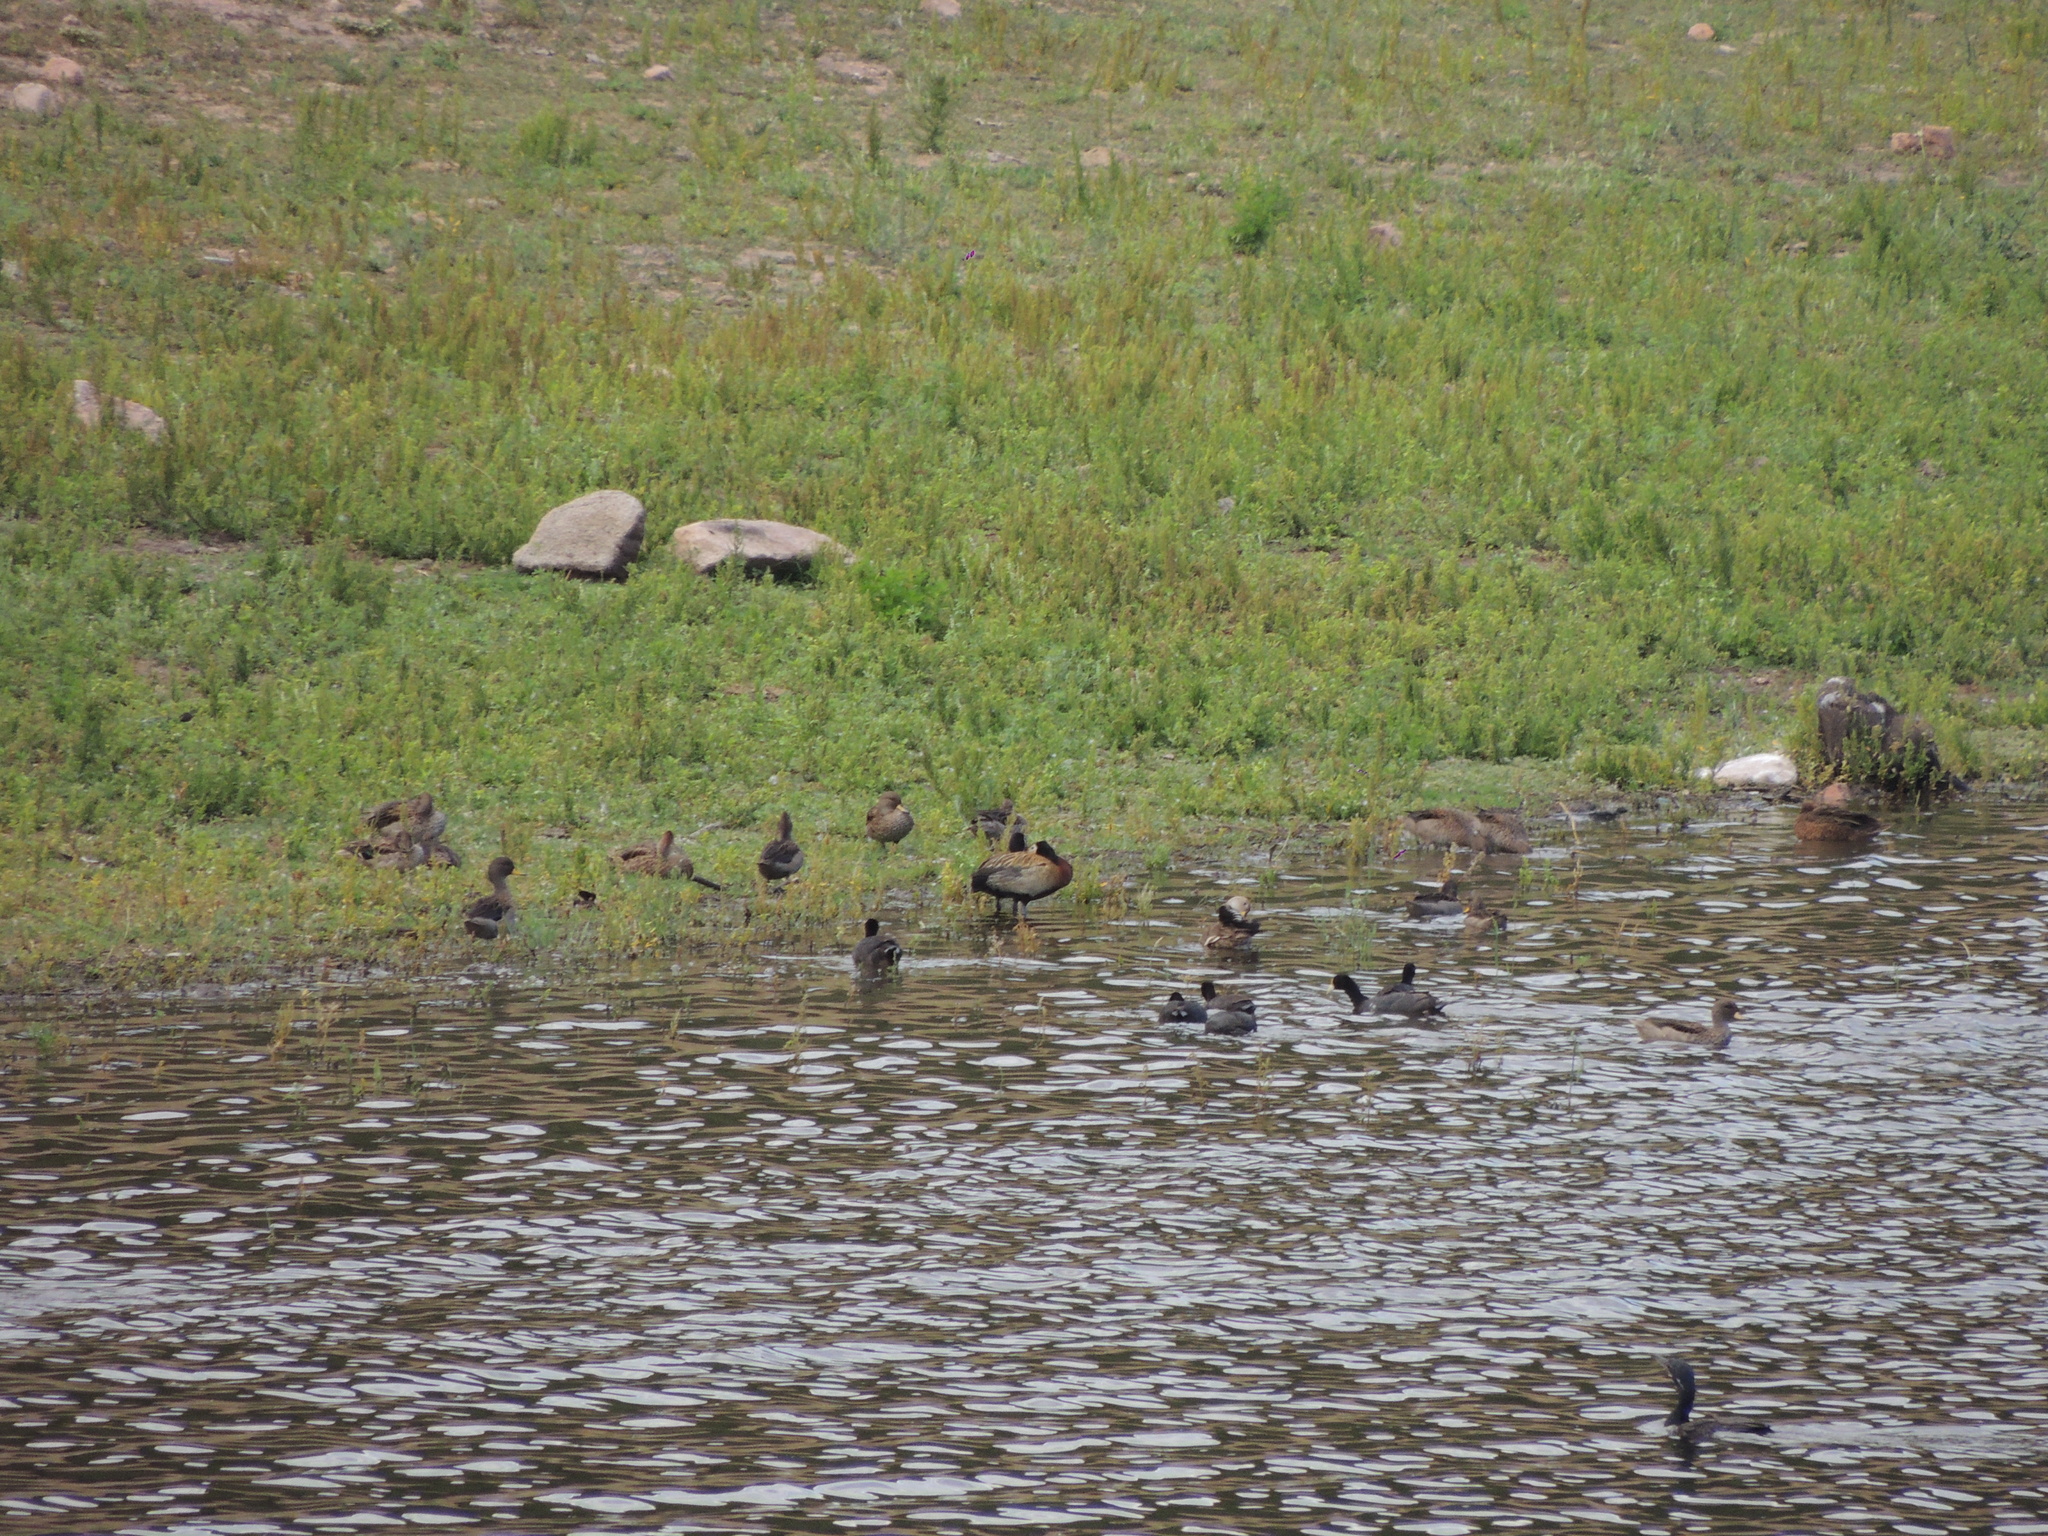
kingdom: Animalia
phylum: Chordata
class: Aves
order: Anseriformes
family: Anatidae
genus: Dendrocygna
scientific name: Dendrocygna viduata
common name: White-faced whistling duck
